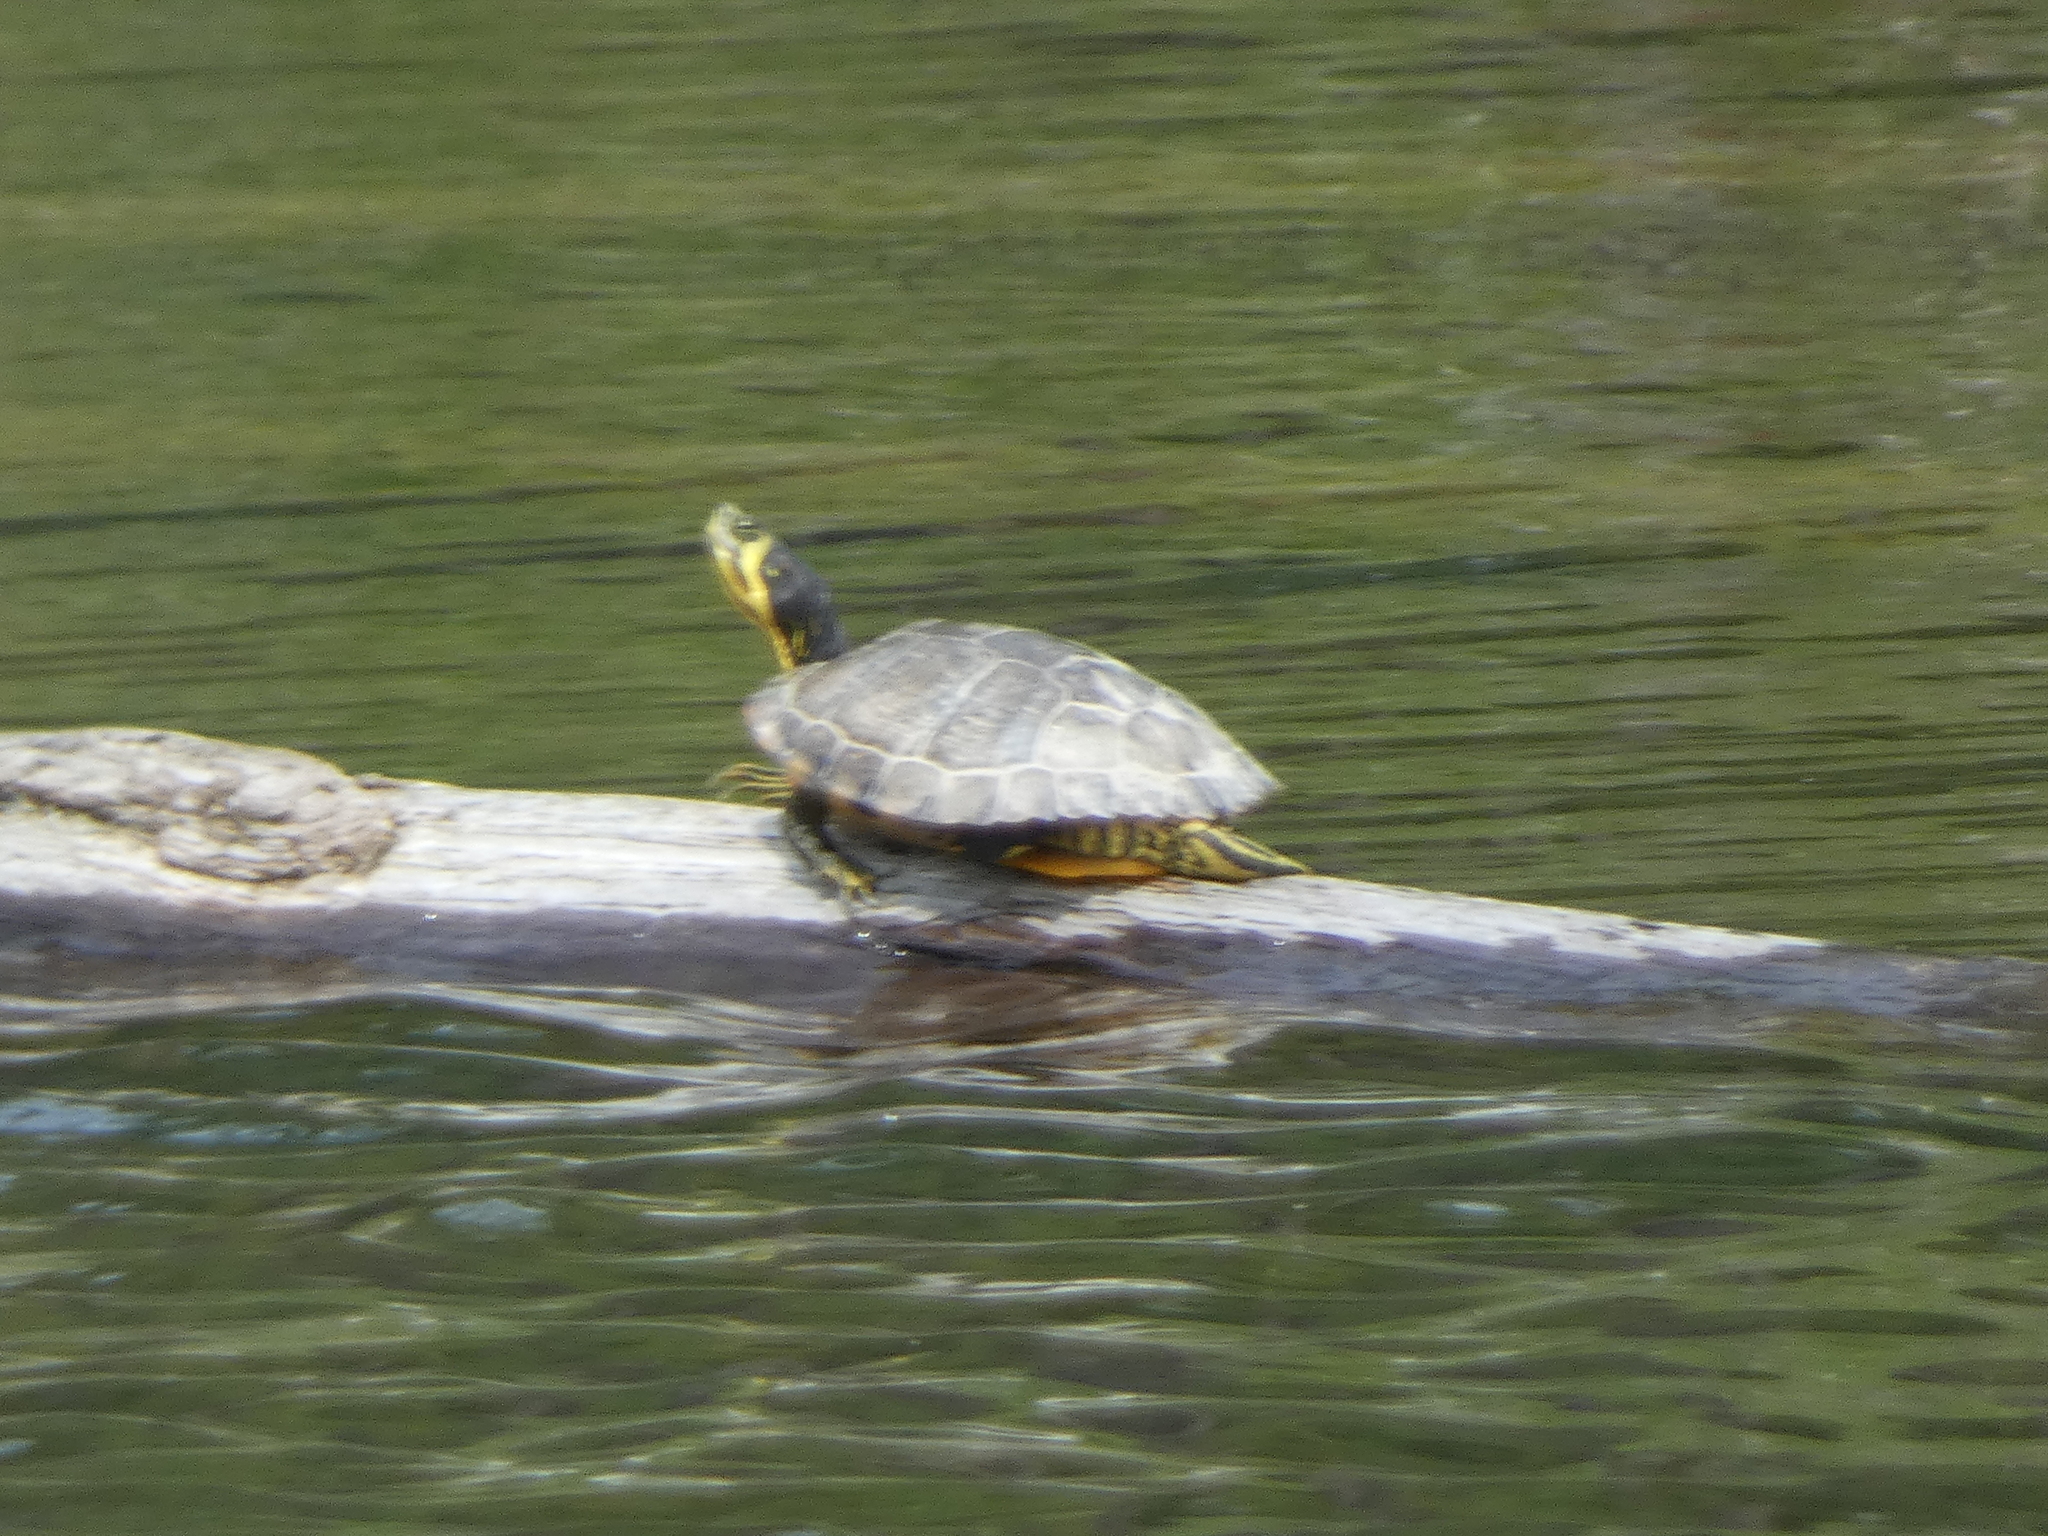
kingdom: Animalia
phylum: Chordata
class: Testudines
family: Emydidae
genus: Trachemys
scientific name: Trachemys scripta
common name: Slider
